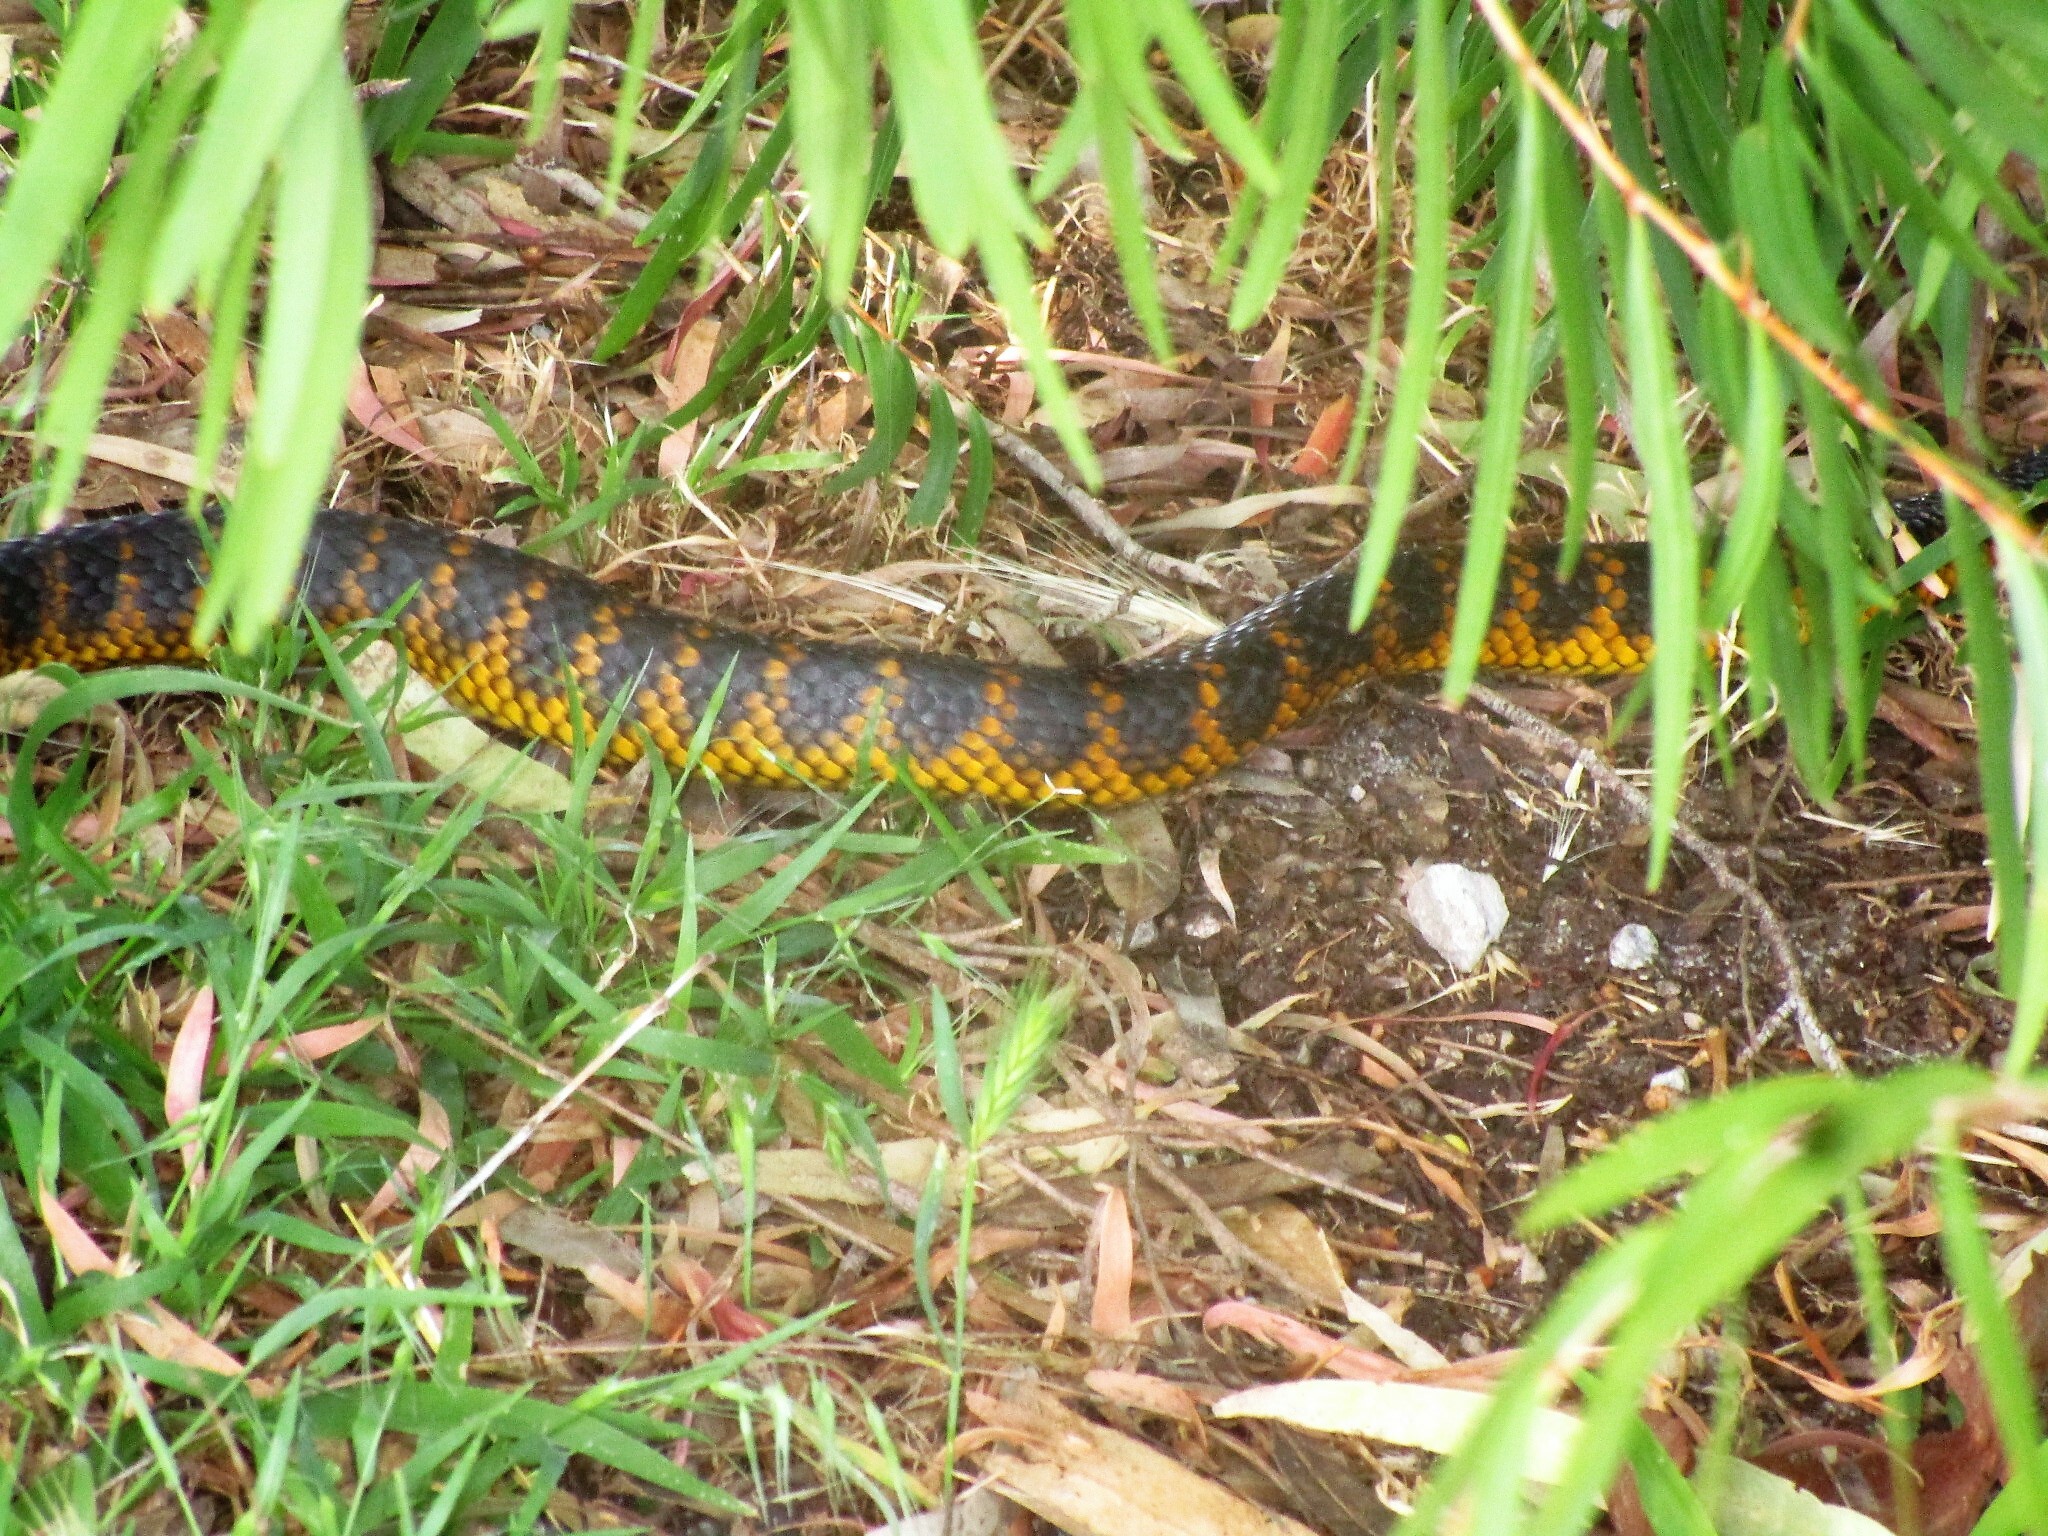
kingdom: Animalia
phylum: Chordata
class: Squamata
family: Elapidae
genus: Notechis
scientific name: Notechis scutatus
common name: Mainland tiger snake
